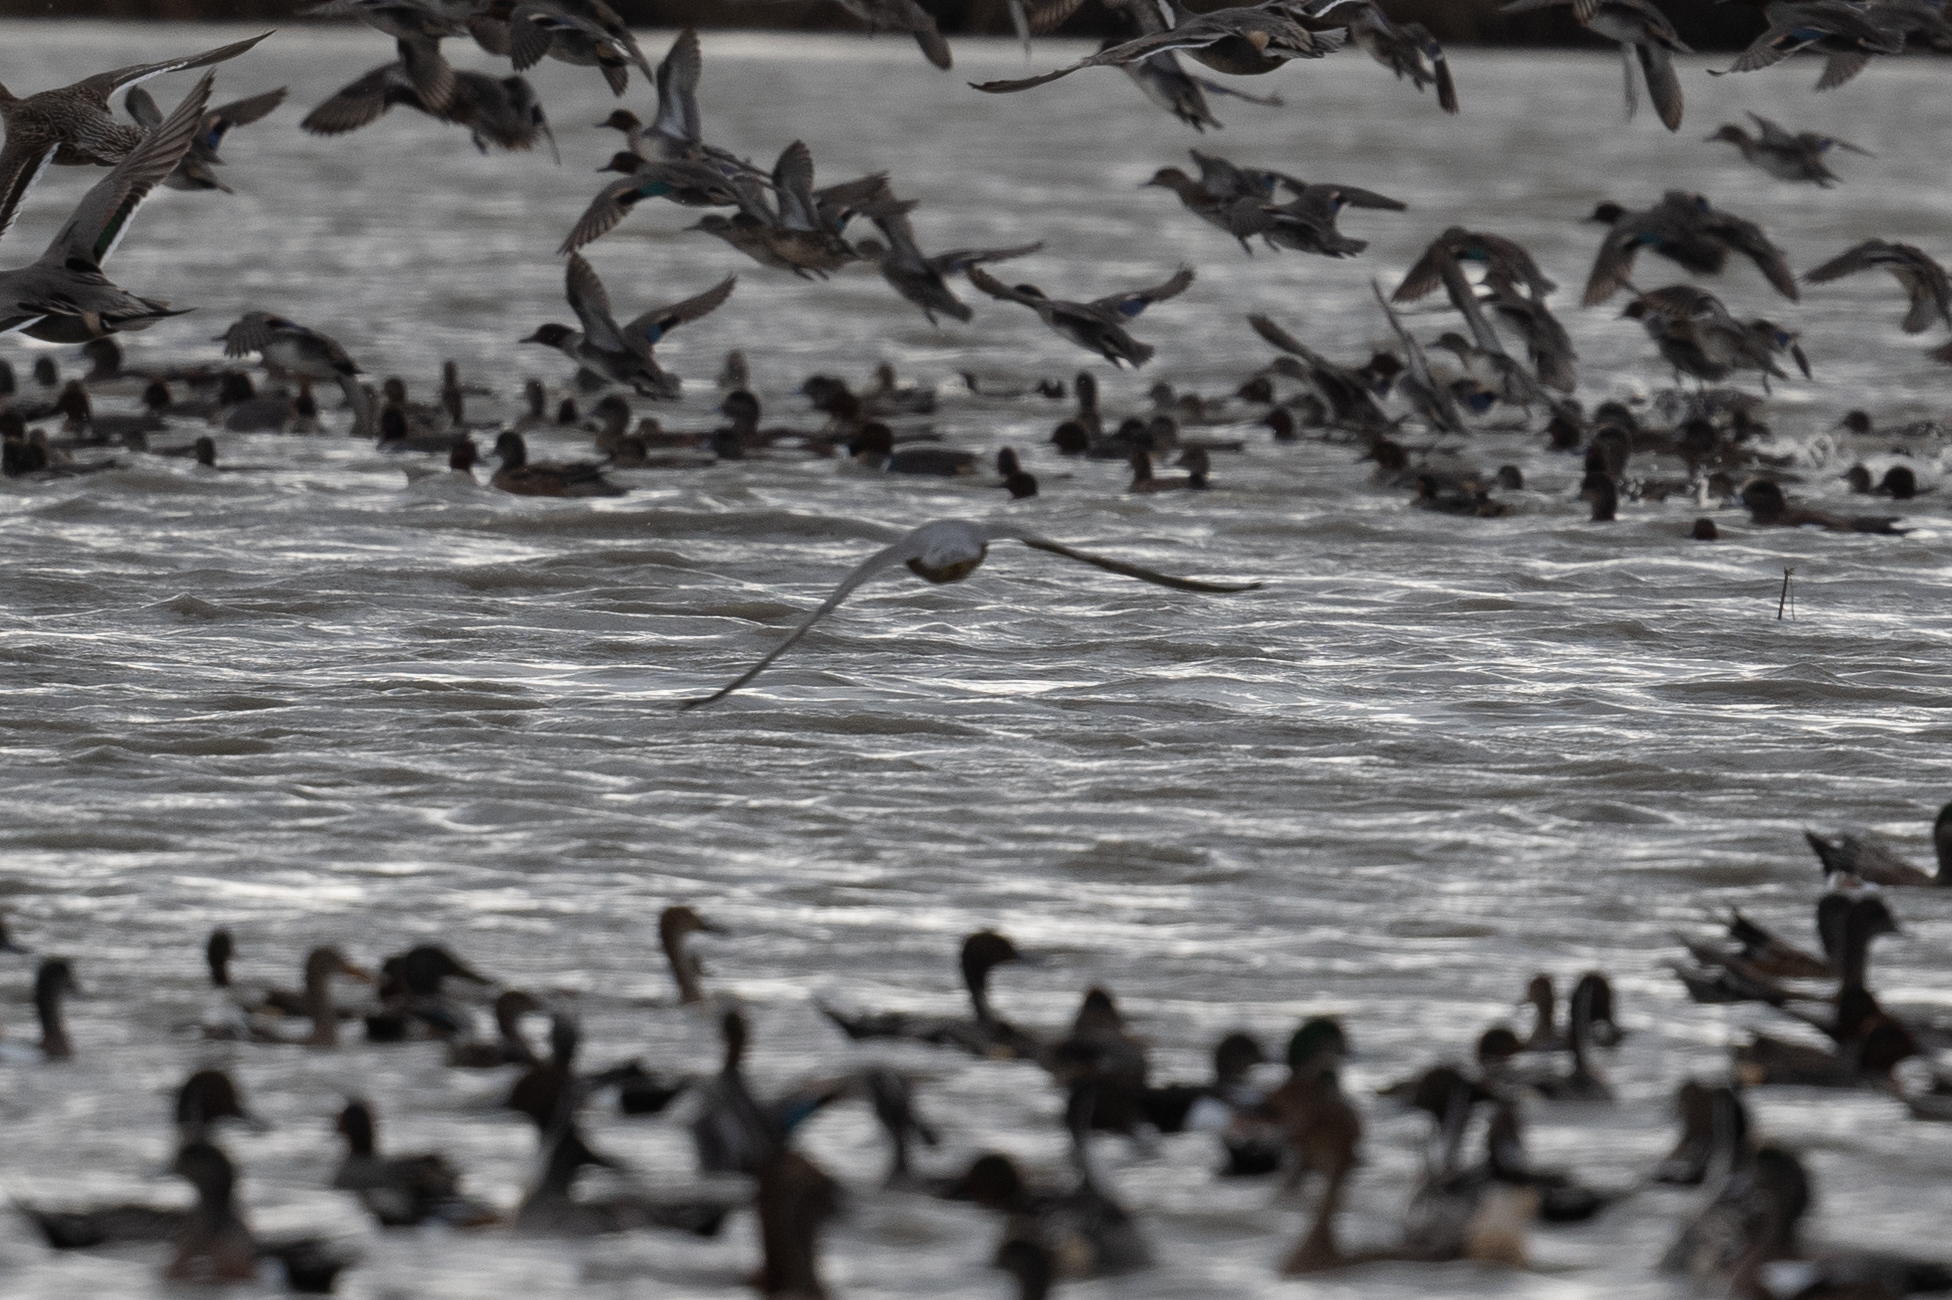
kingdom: Animalia
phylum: Chordata
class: Aves
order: Falconiformes
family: Falconidae
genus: Falco
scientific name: Falco peregrinus
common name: Peregrine falcon
